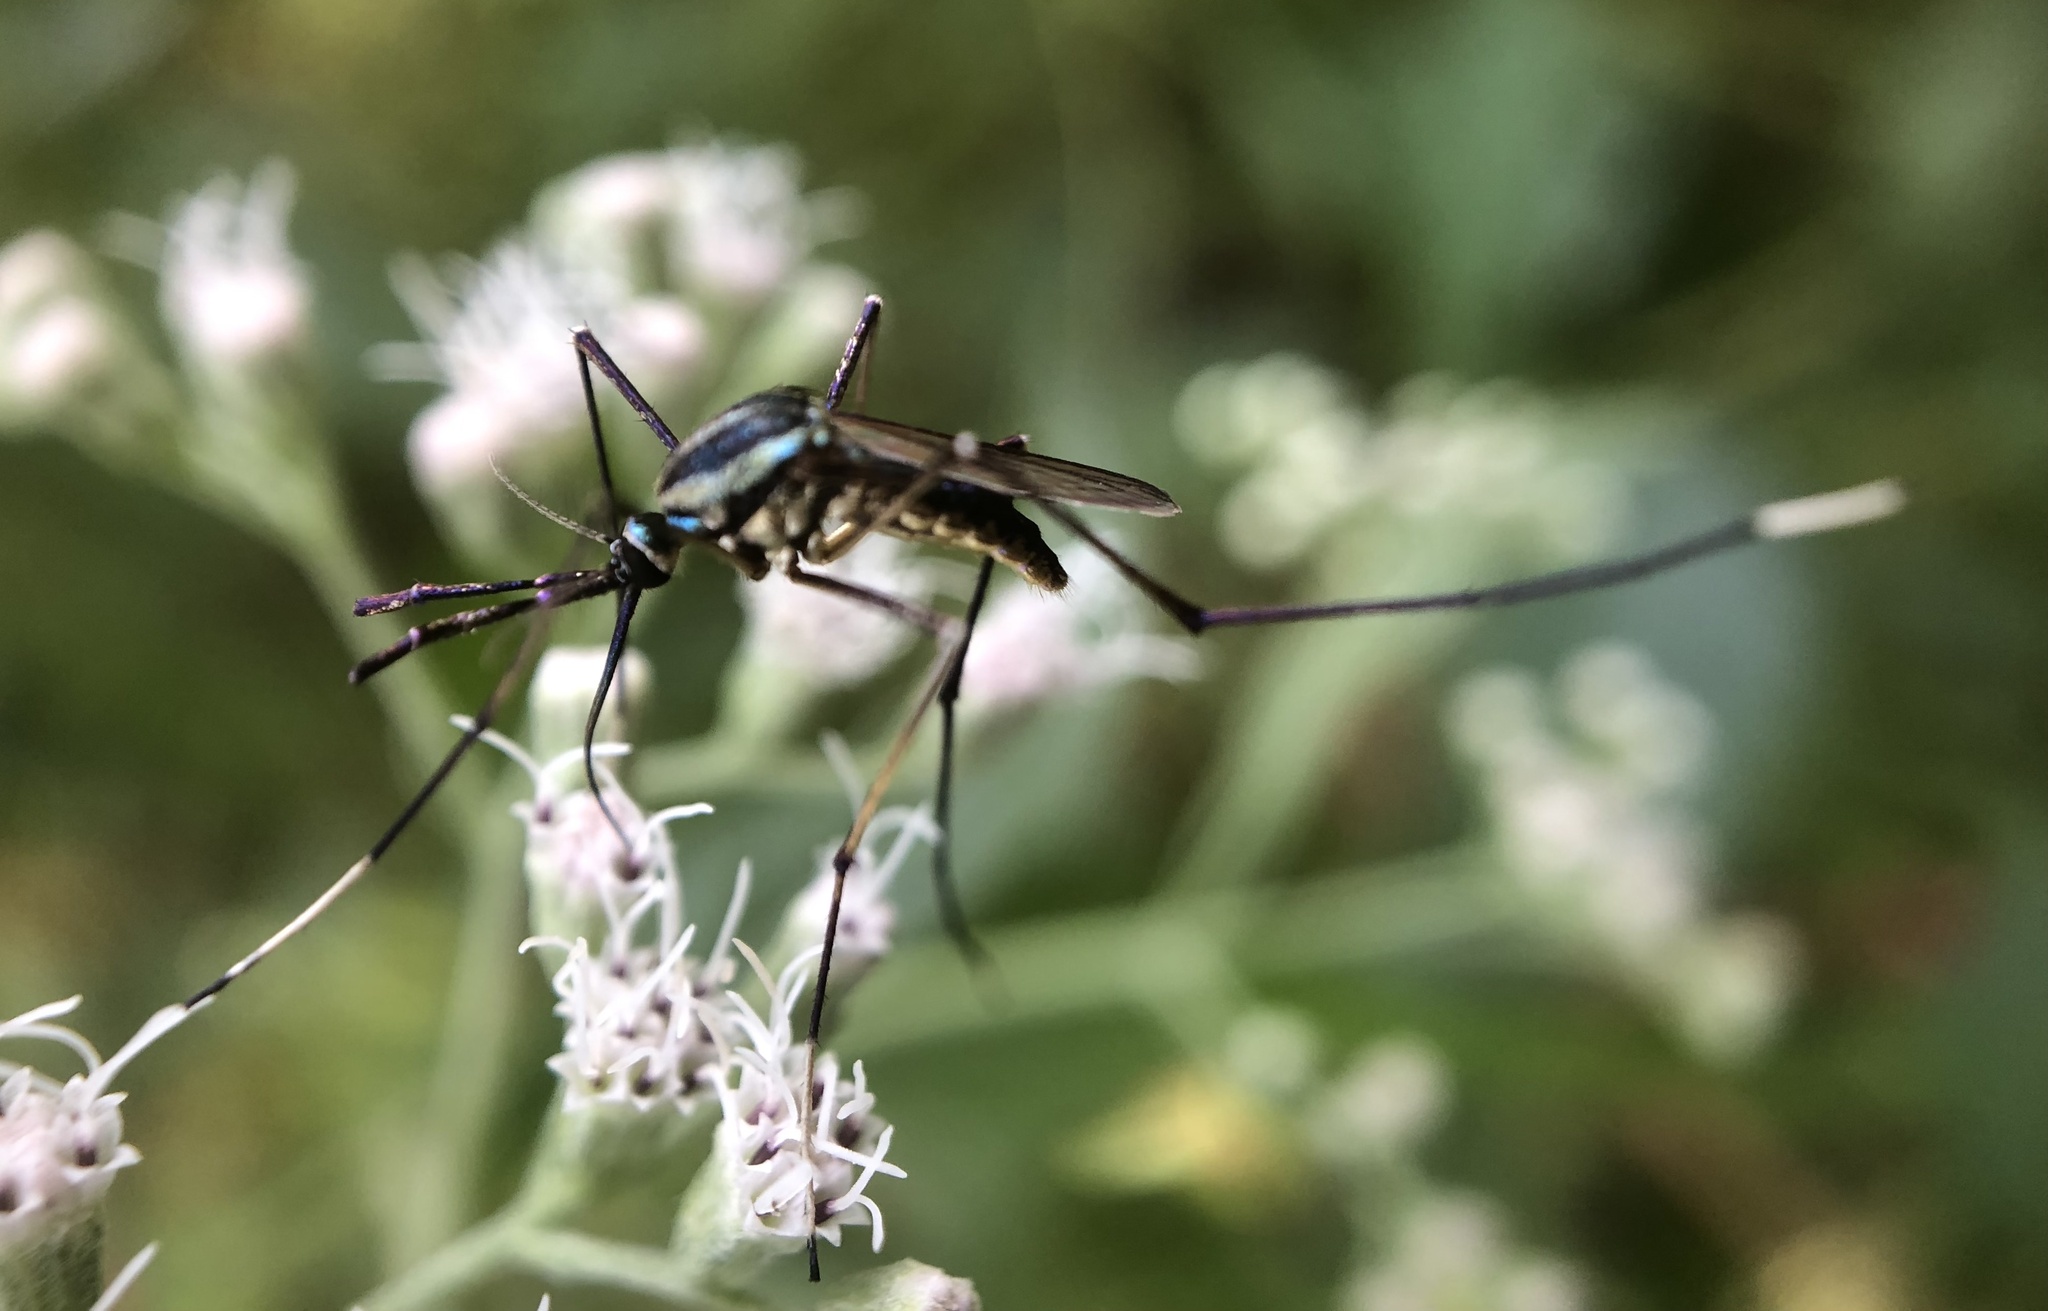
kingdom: Animalia
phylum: Arthropoda
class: Insecta
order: Diptera
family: Culicidae
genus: Toxorhynchites
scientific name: Toxorhynchites rutilus
